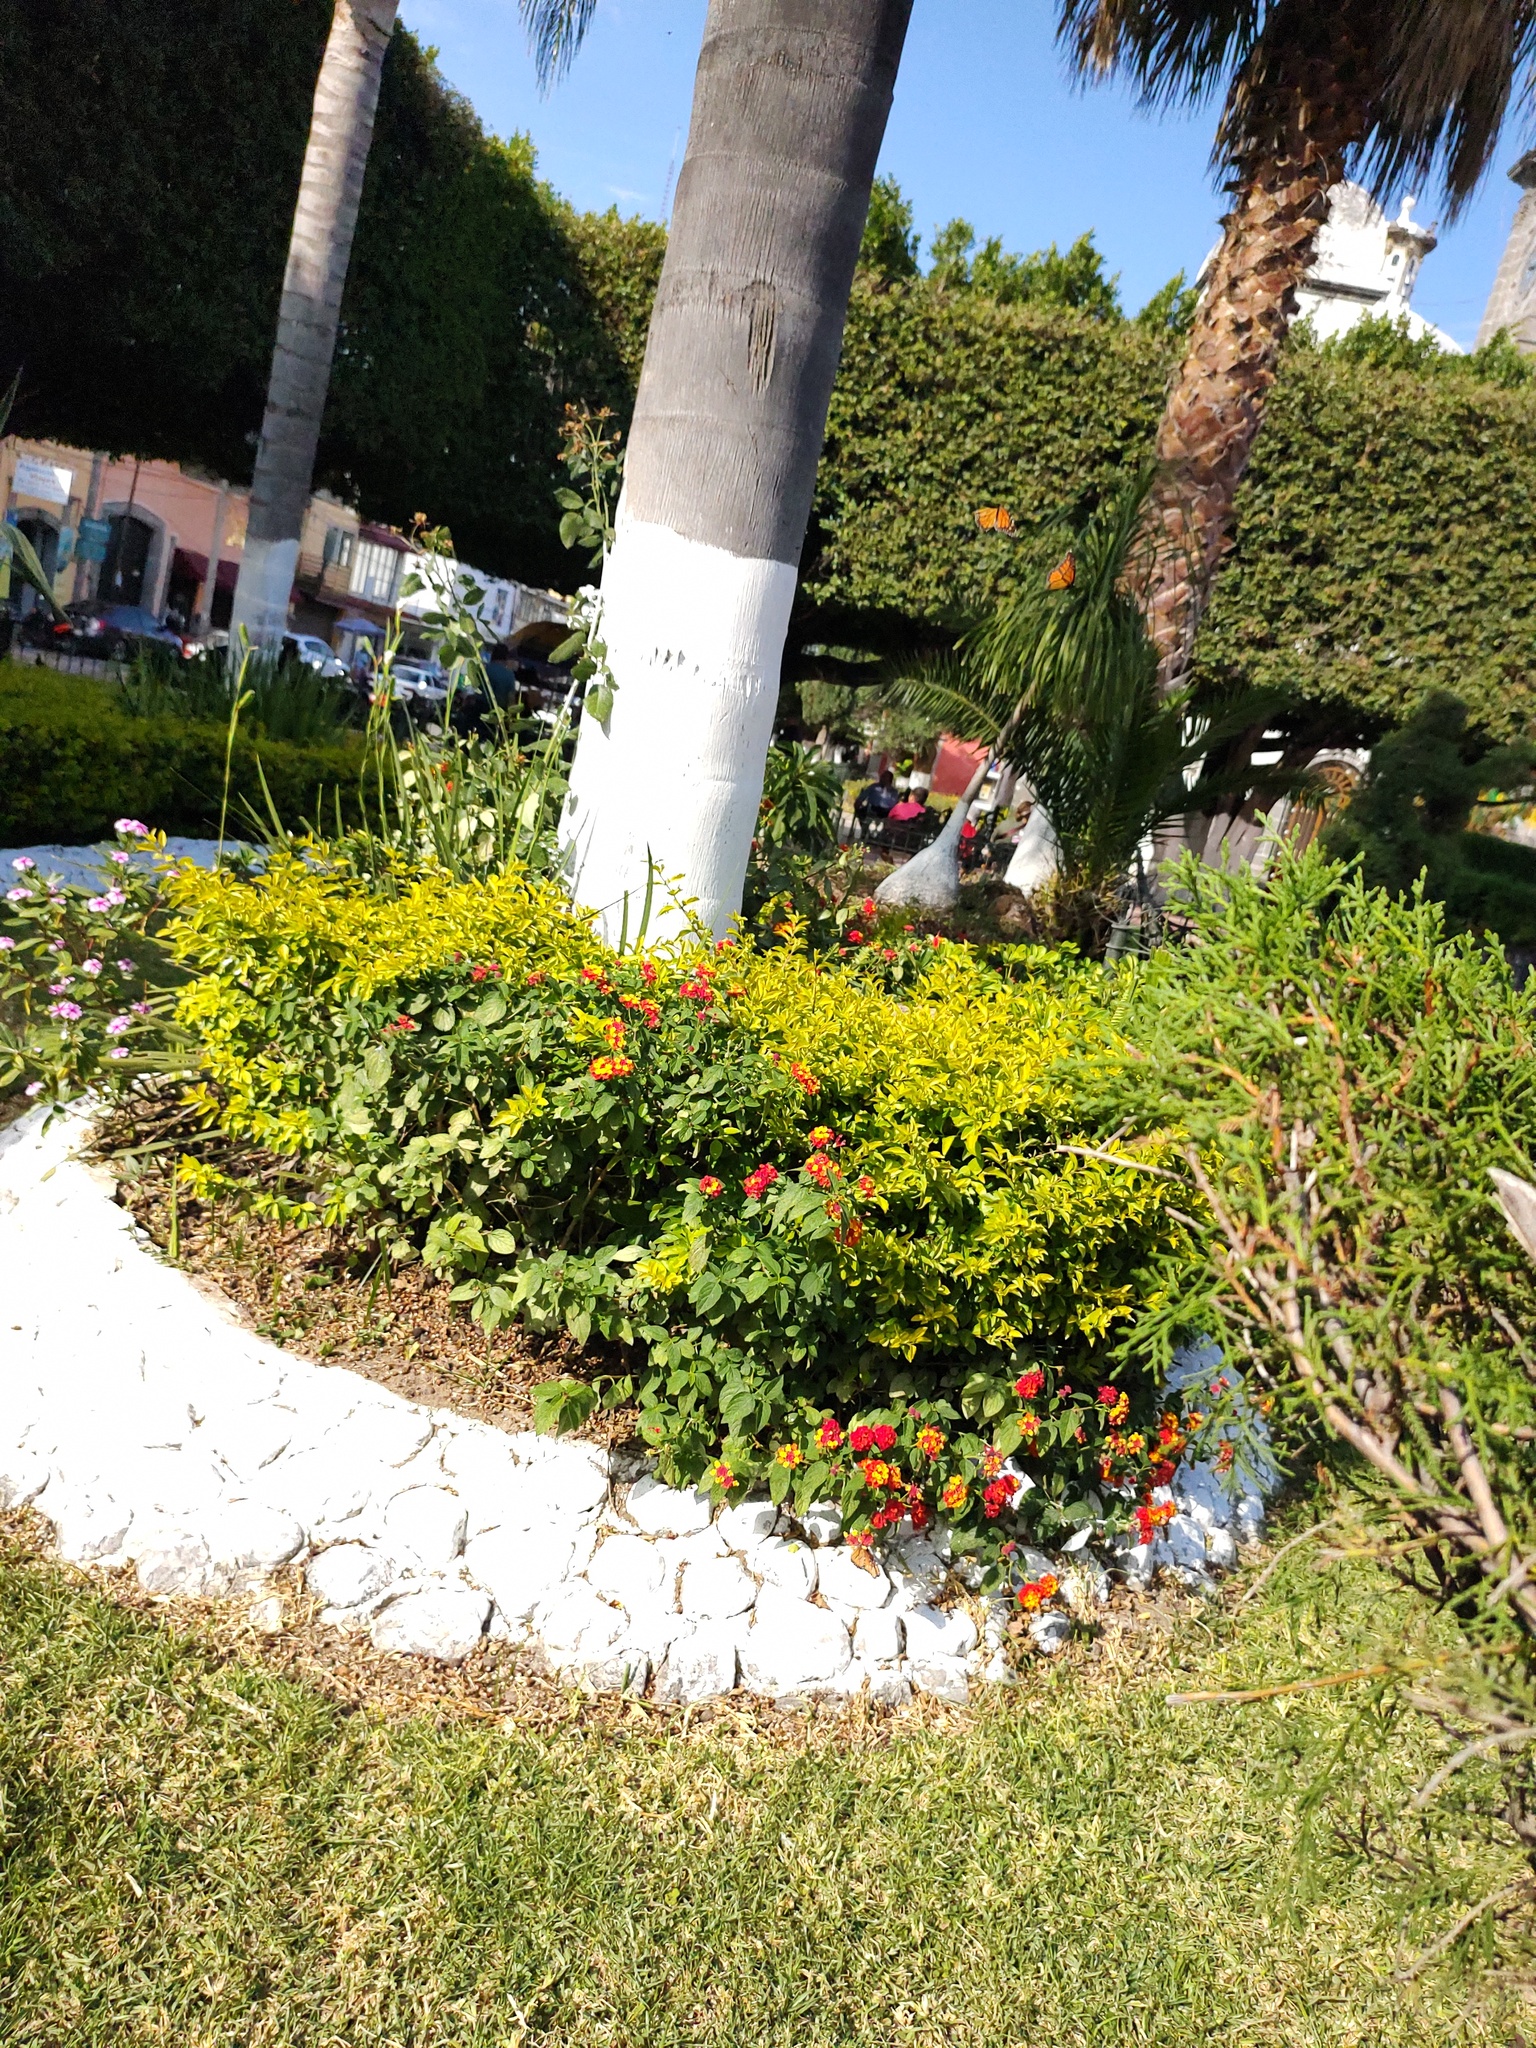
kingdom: Animalia
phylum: Arthropoda
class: Insecta
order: Lepidoptera
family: Nymphalidae
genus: Danaus
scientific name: Danaus plexippus
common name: Monarch
